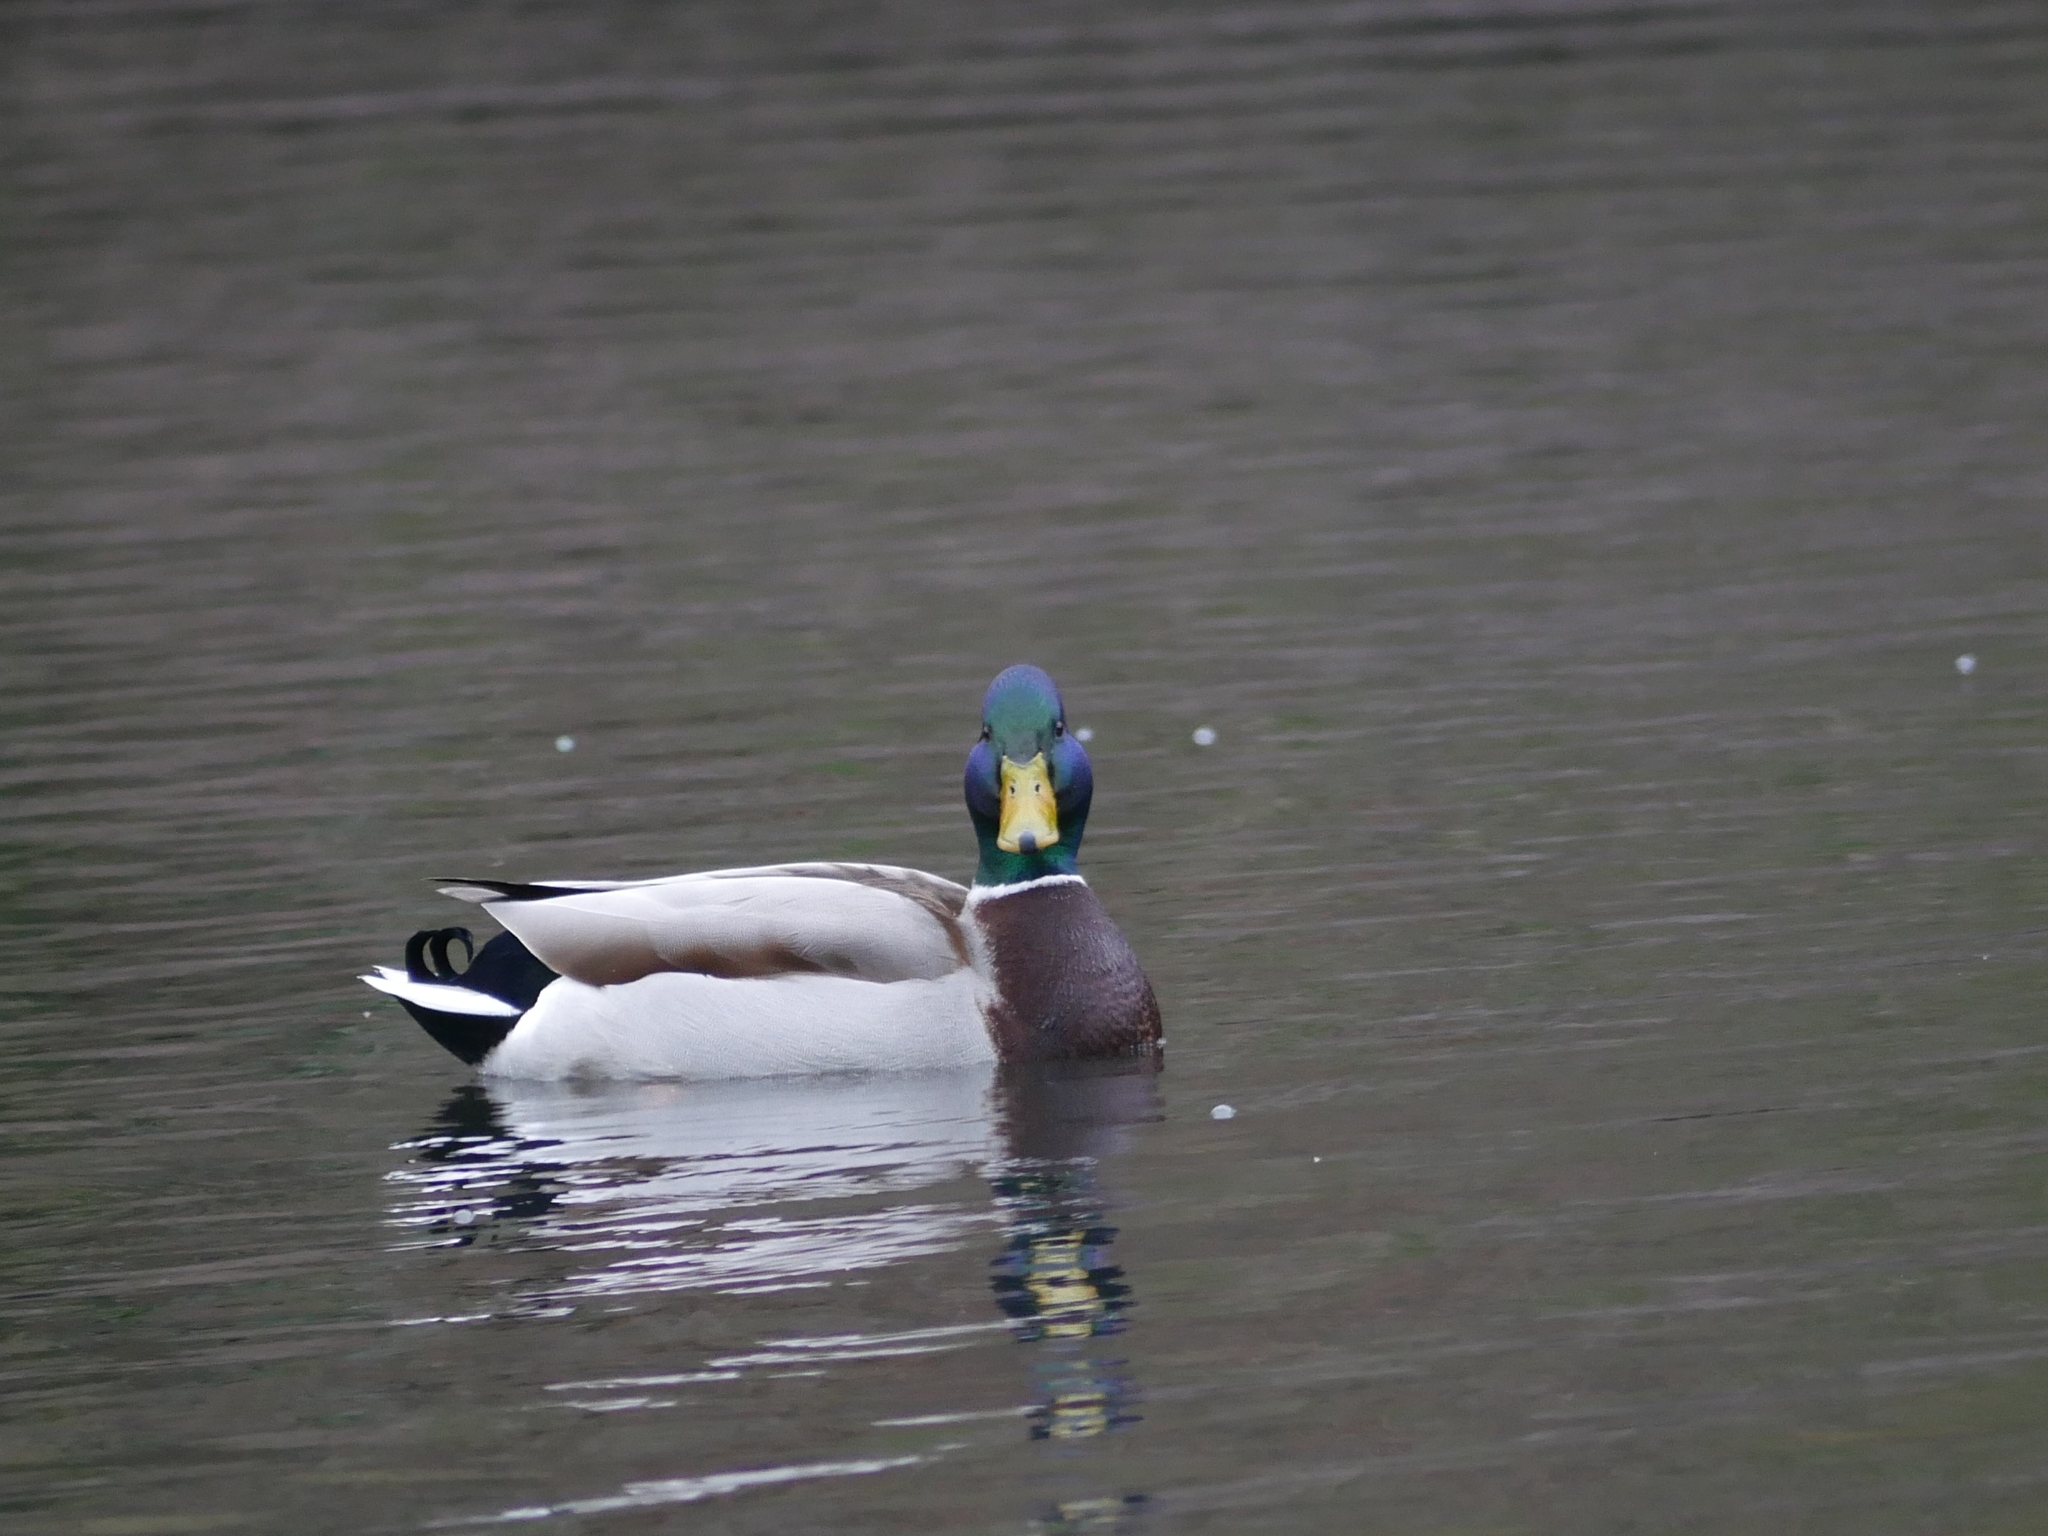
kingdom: Animalia
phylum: Chordata
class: Aves
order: Anseriformes
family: Anatidae
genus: Anas
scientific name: Anas platyrhynchos
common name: Mallard
